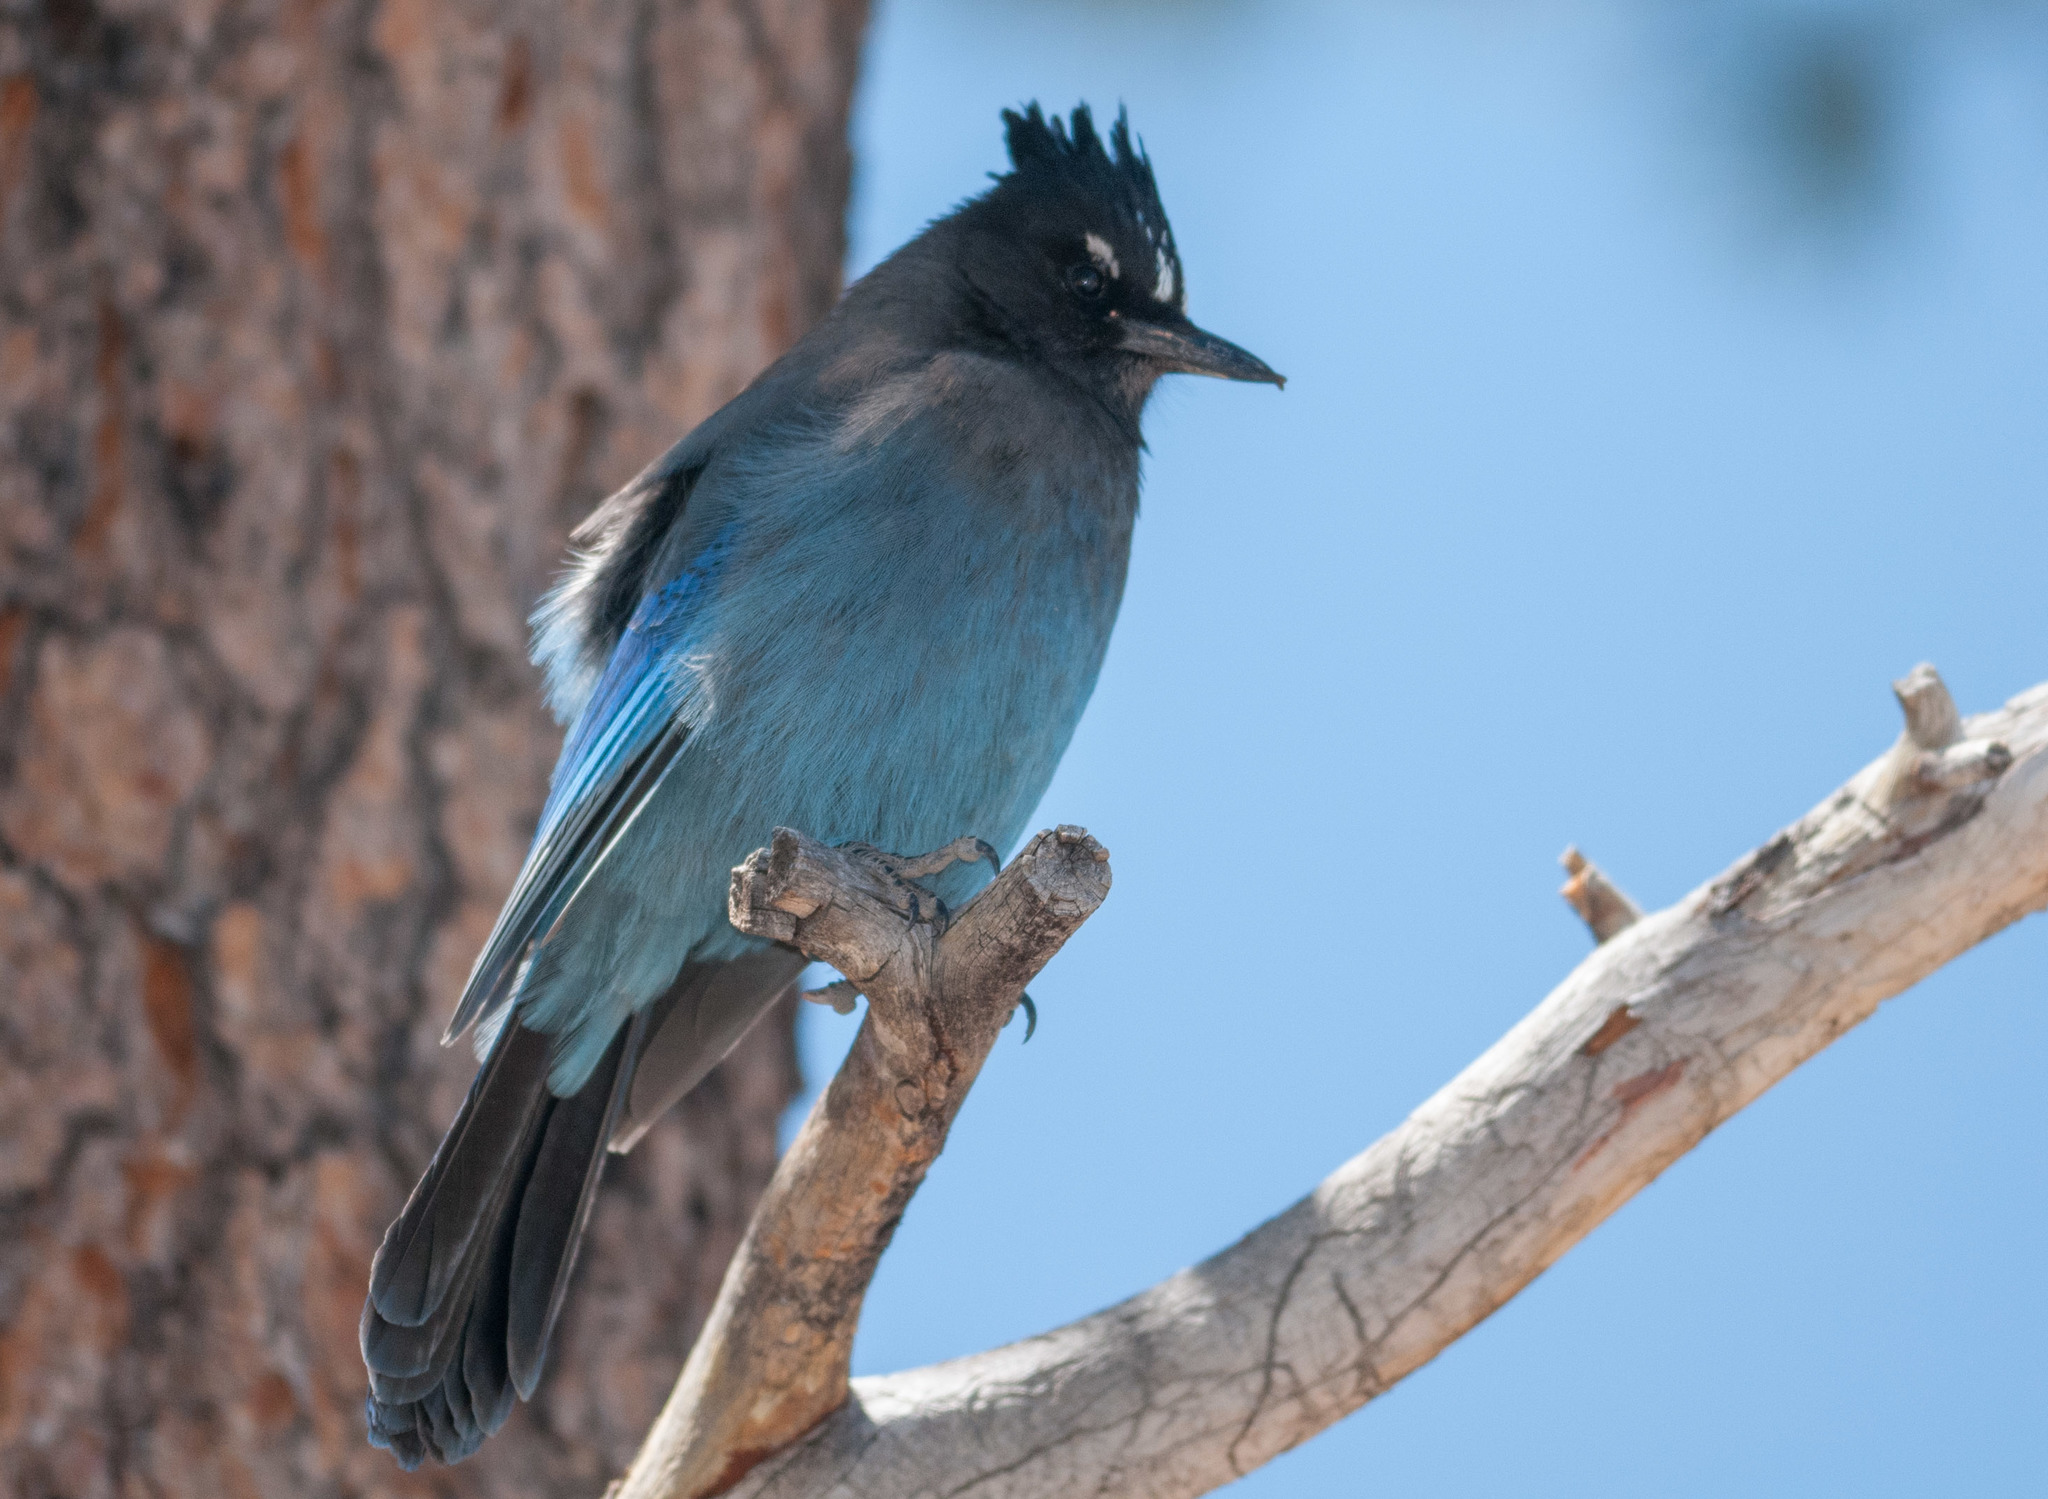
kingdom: Animalia
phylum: Chordata
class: Aves
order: Passeriformes
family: Corvidae
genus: Cyanocitta
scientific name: Cyanocitta stelleri
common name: Steller's jay
